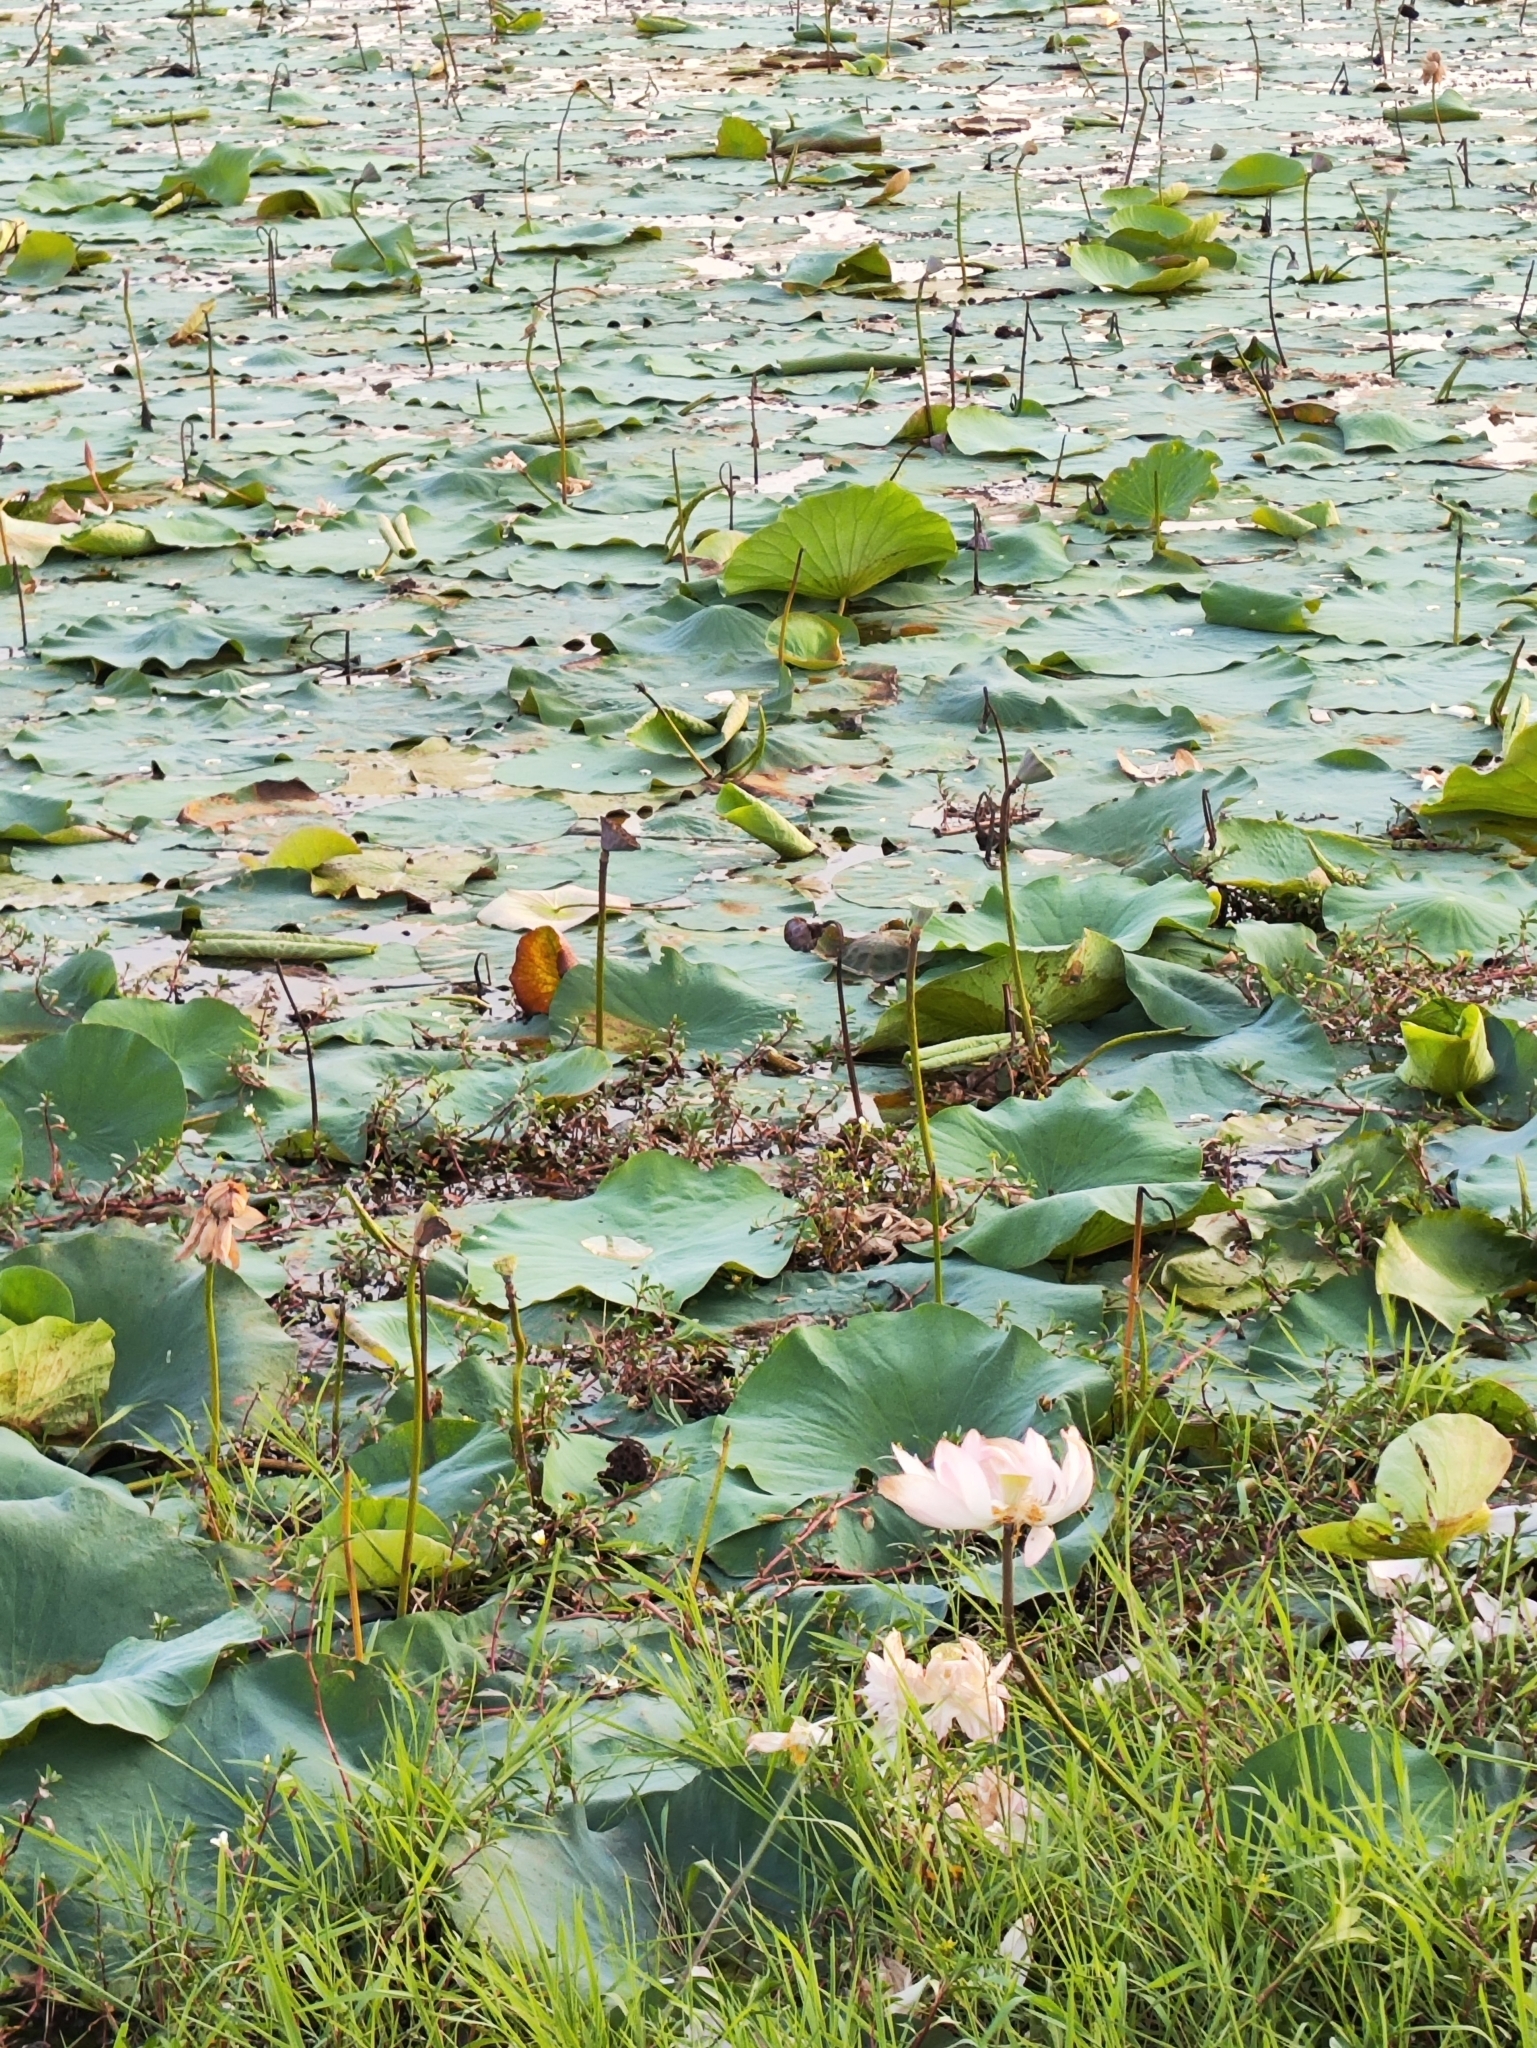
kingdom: Plantae
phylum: Tracheophyta
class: Magnoliopsida
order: Proteales
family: Nelumbonaceae
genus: Nelumbo
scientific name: Nelumbo nucifera
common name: Sacred lotus
